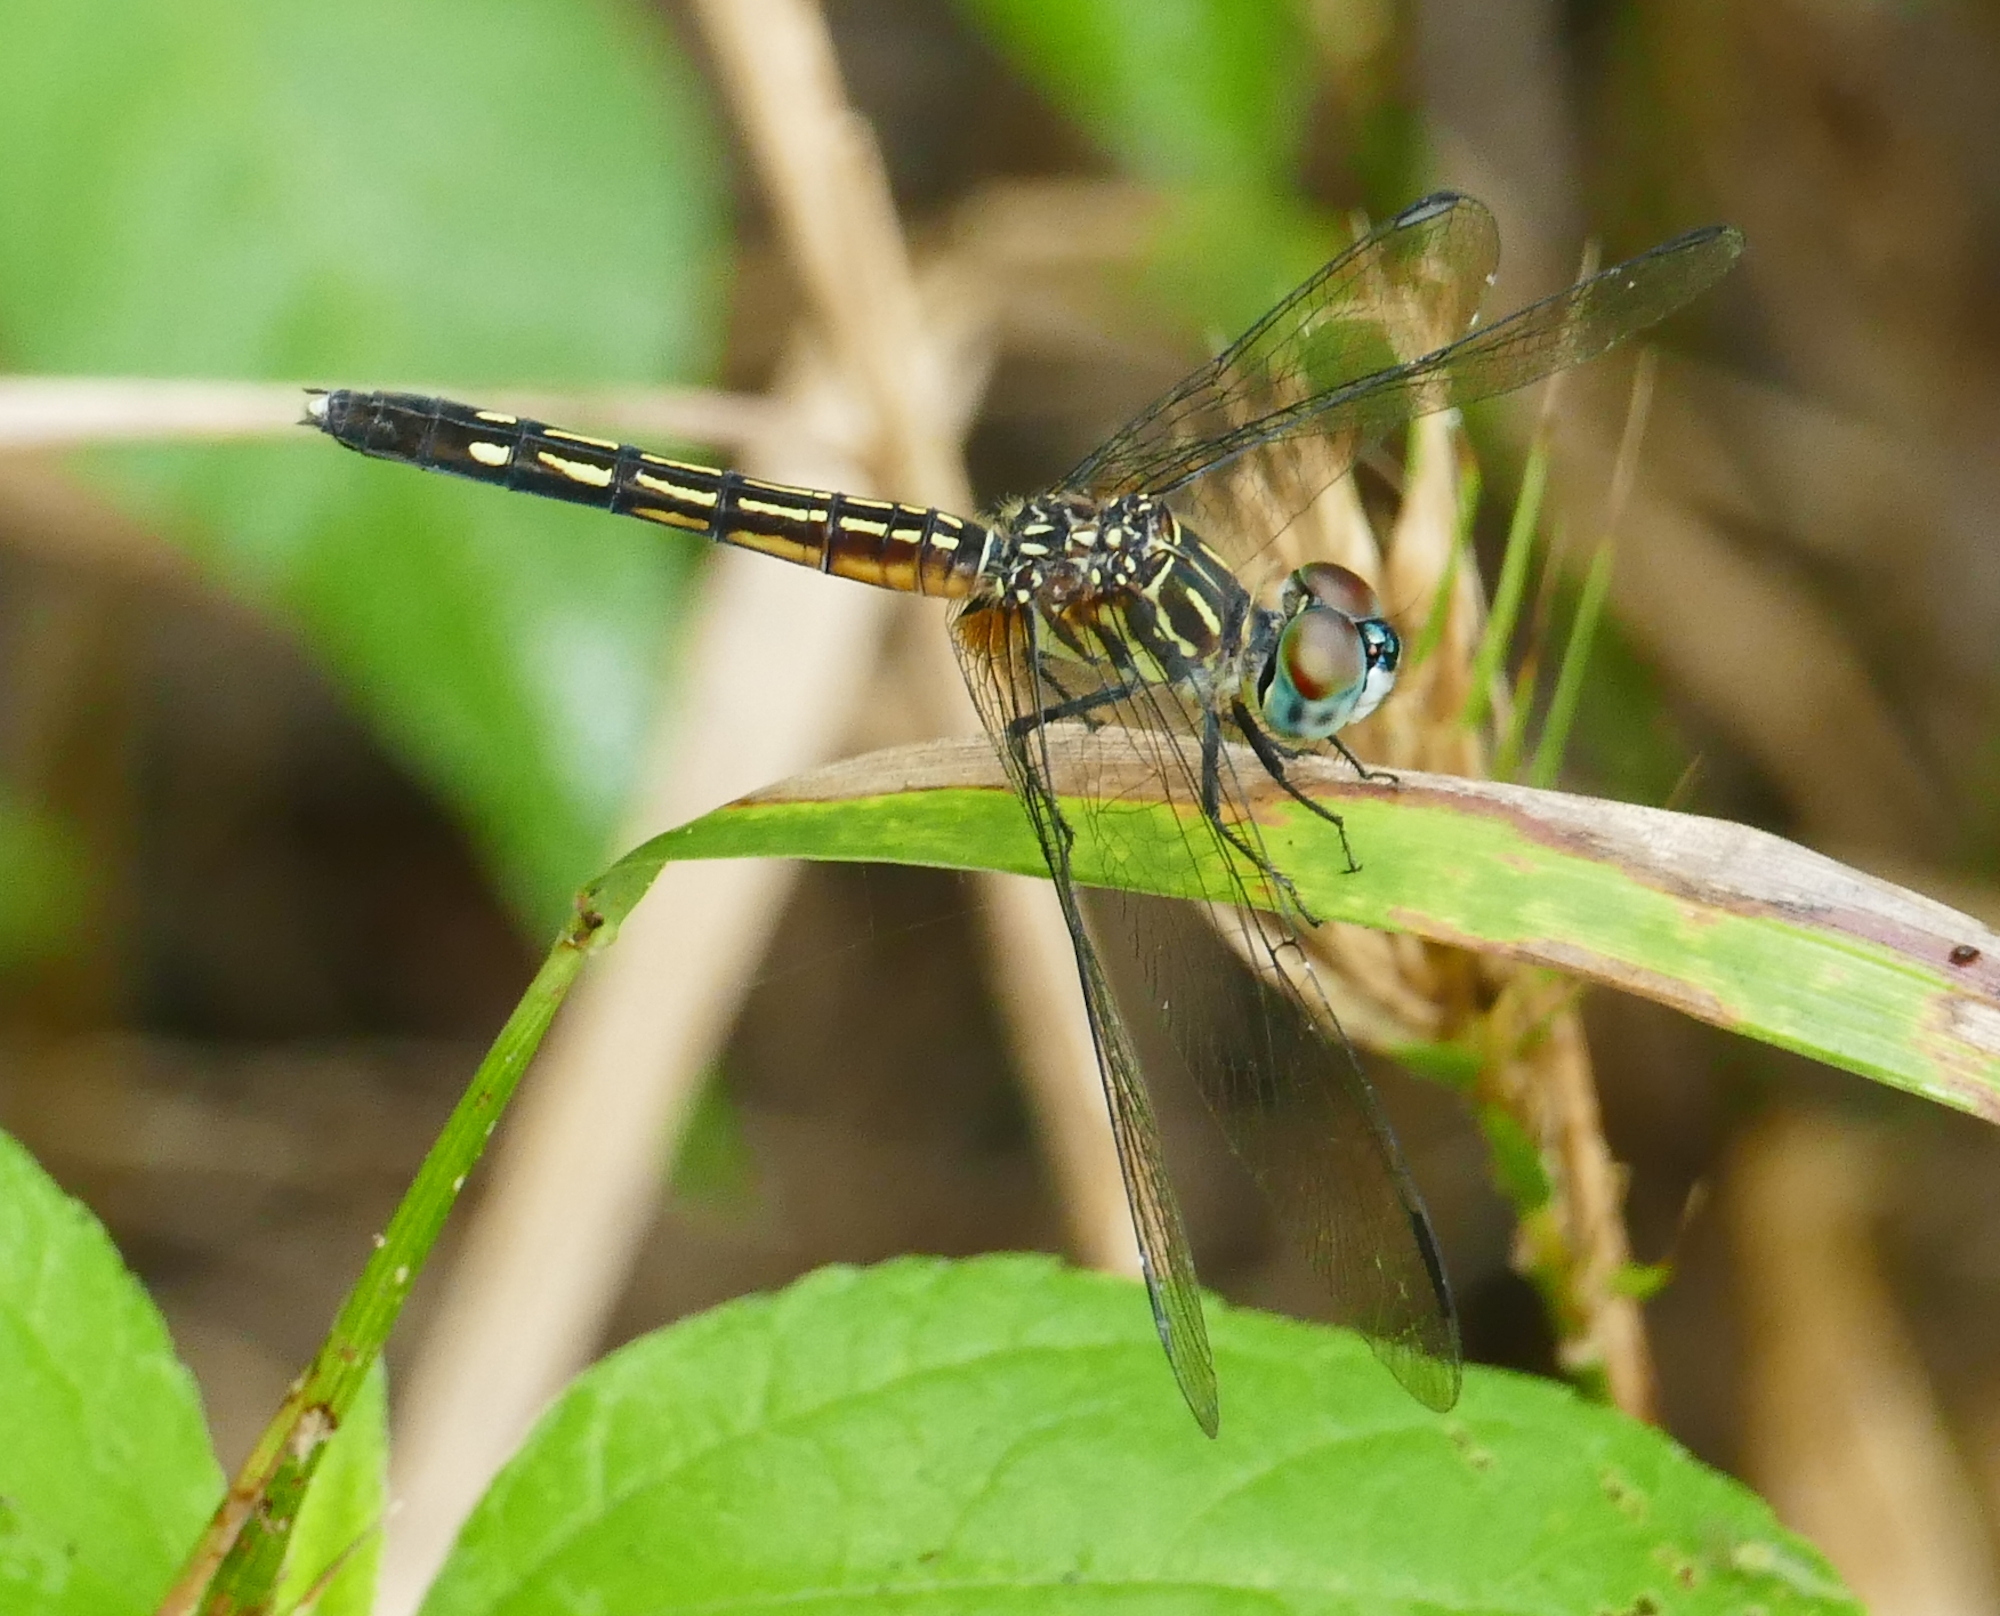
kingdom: Animalia
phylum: Arthropoda
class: Insecta
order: Odonata
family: Libellulidae
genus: Pachydiplax
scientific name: Pachydiplax longipennis
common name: Blue dasher
